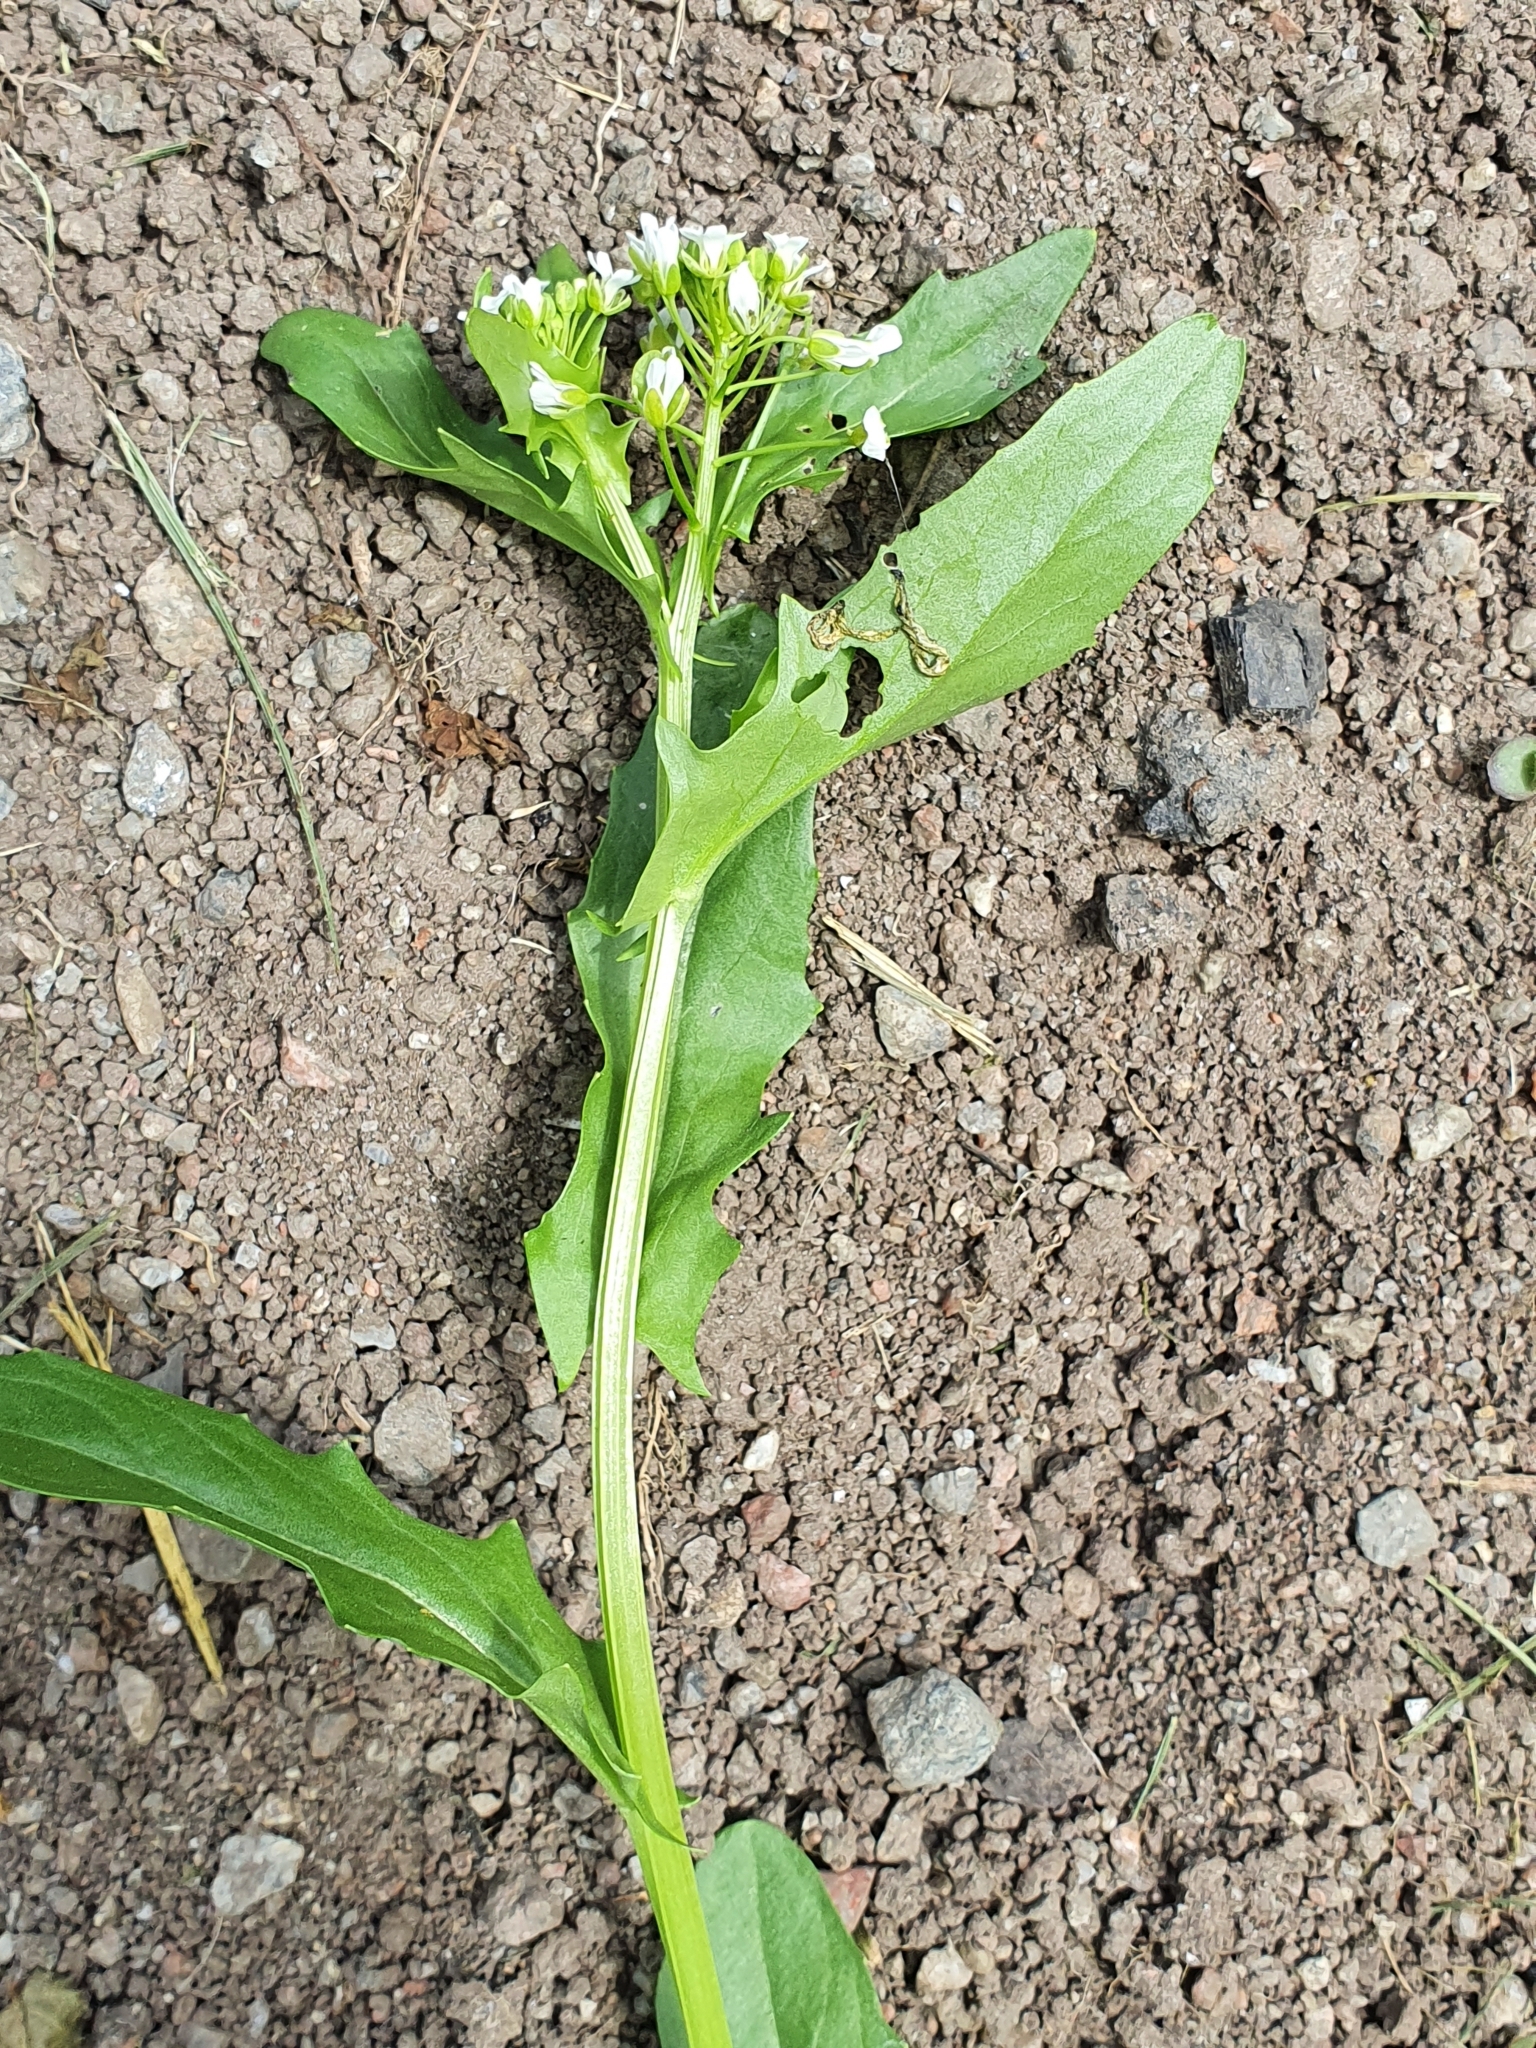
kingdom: Plantae
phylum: Tracheophyta
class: Magnoliopsida
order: Brassicales
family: Brassicaceae
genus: Thlaspi
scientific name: Thlaspi arvense
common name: Field pennycress
